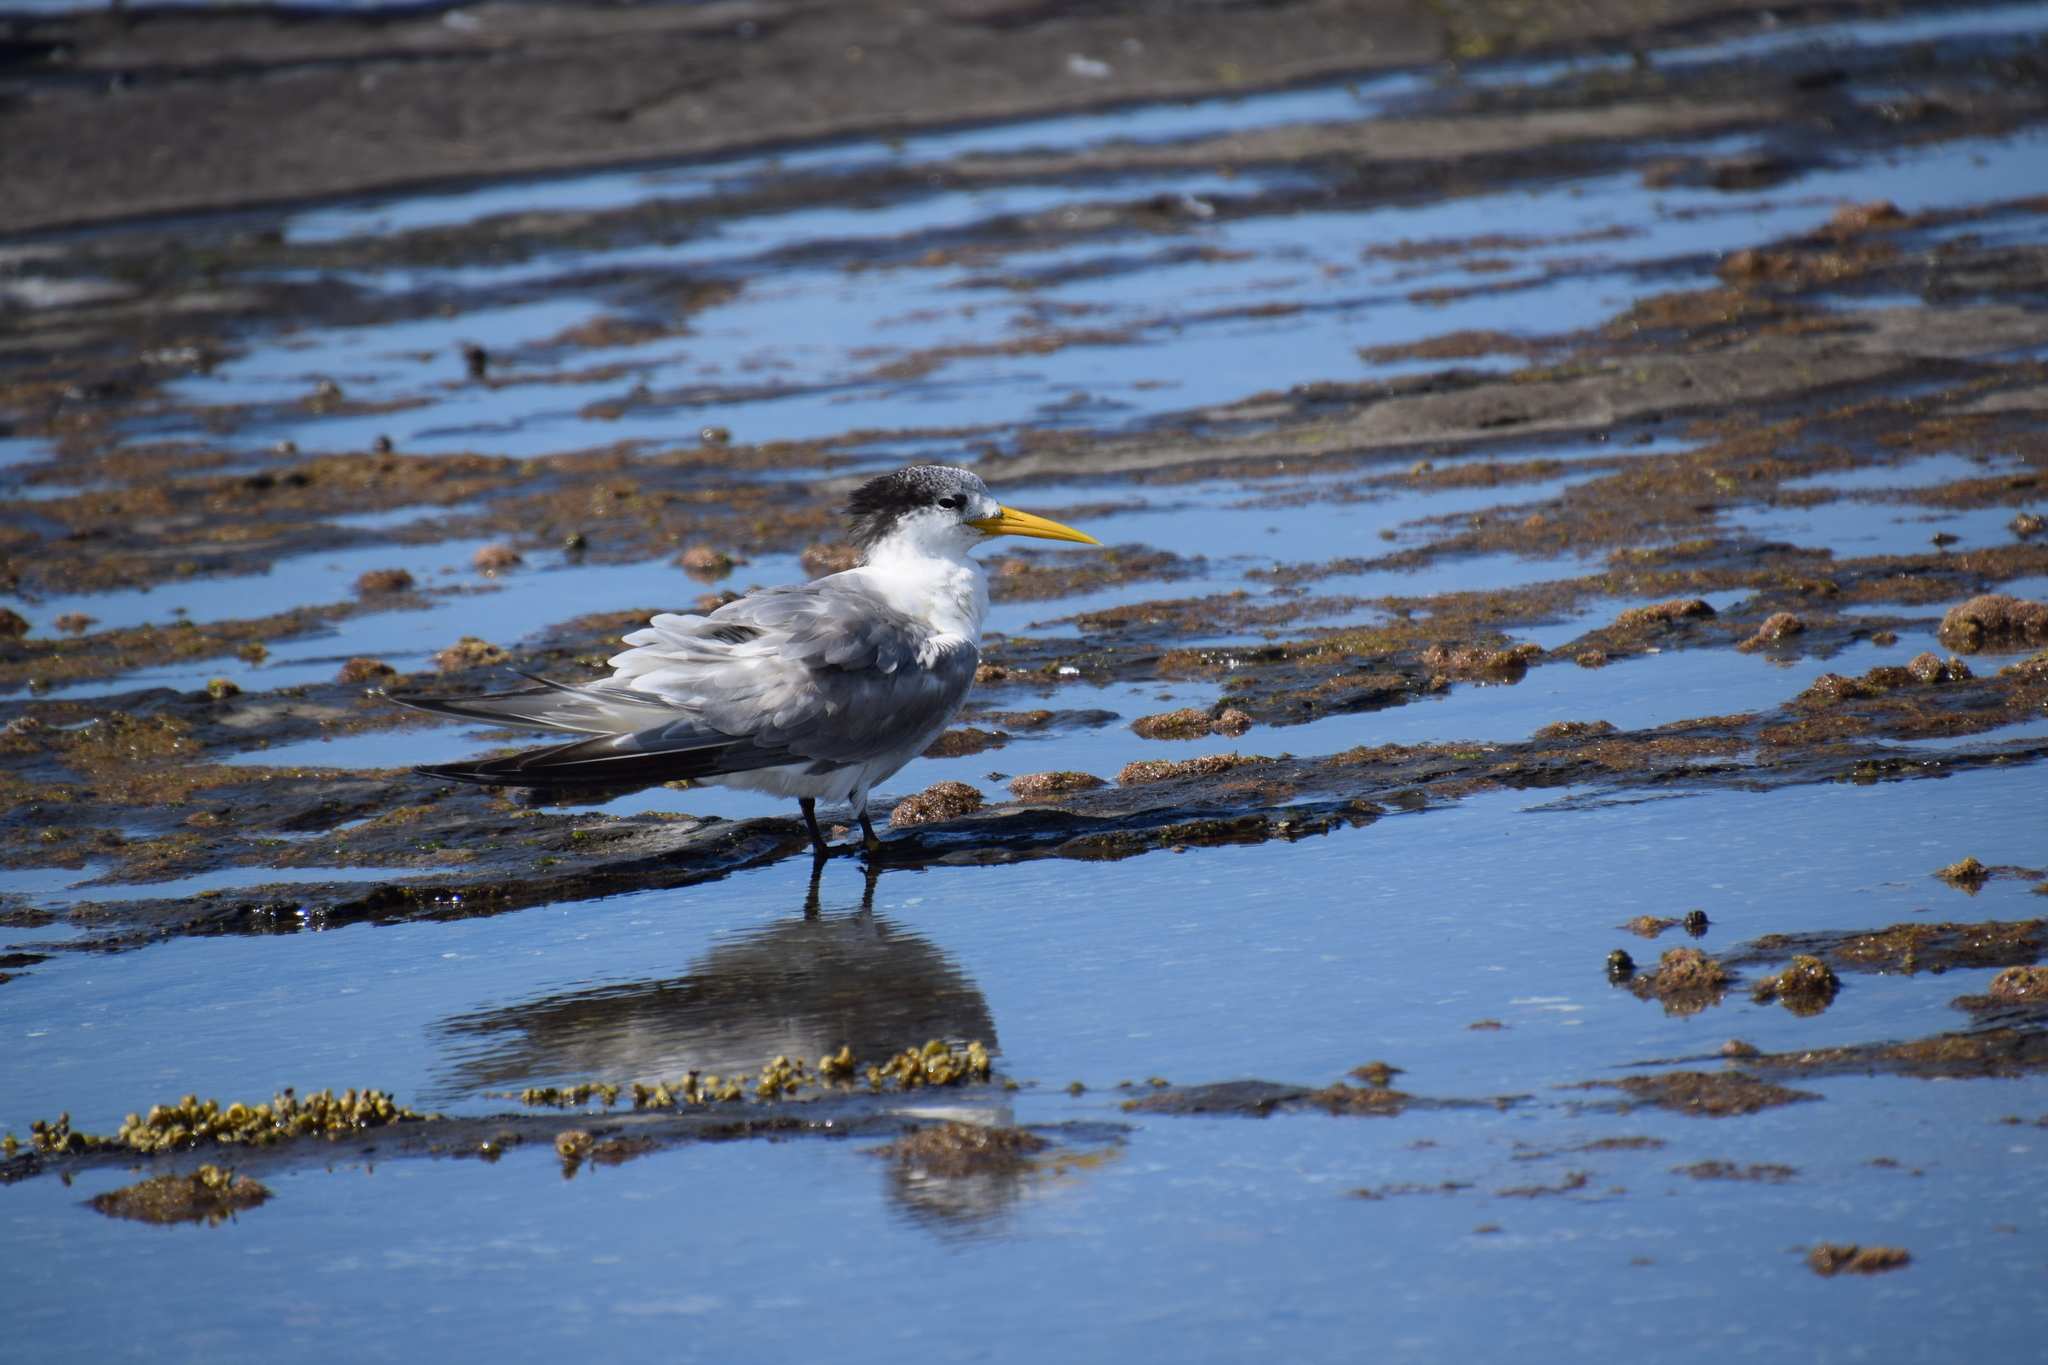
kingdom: Animalia
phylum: Chordata
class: Aves
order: Charadriiformes
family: Laridae
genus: Thalasseus
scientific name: Thalasseus bergii
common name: Greater crested tern
